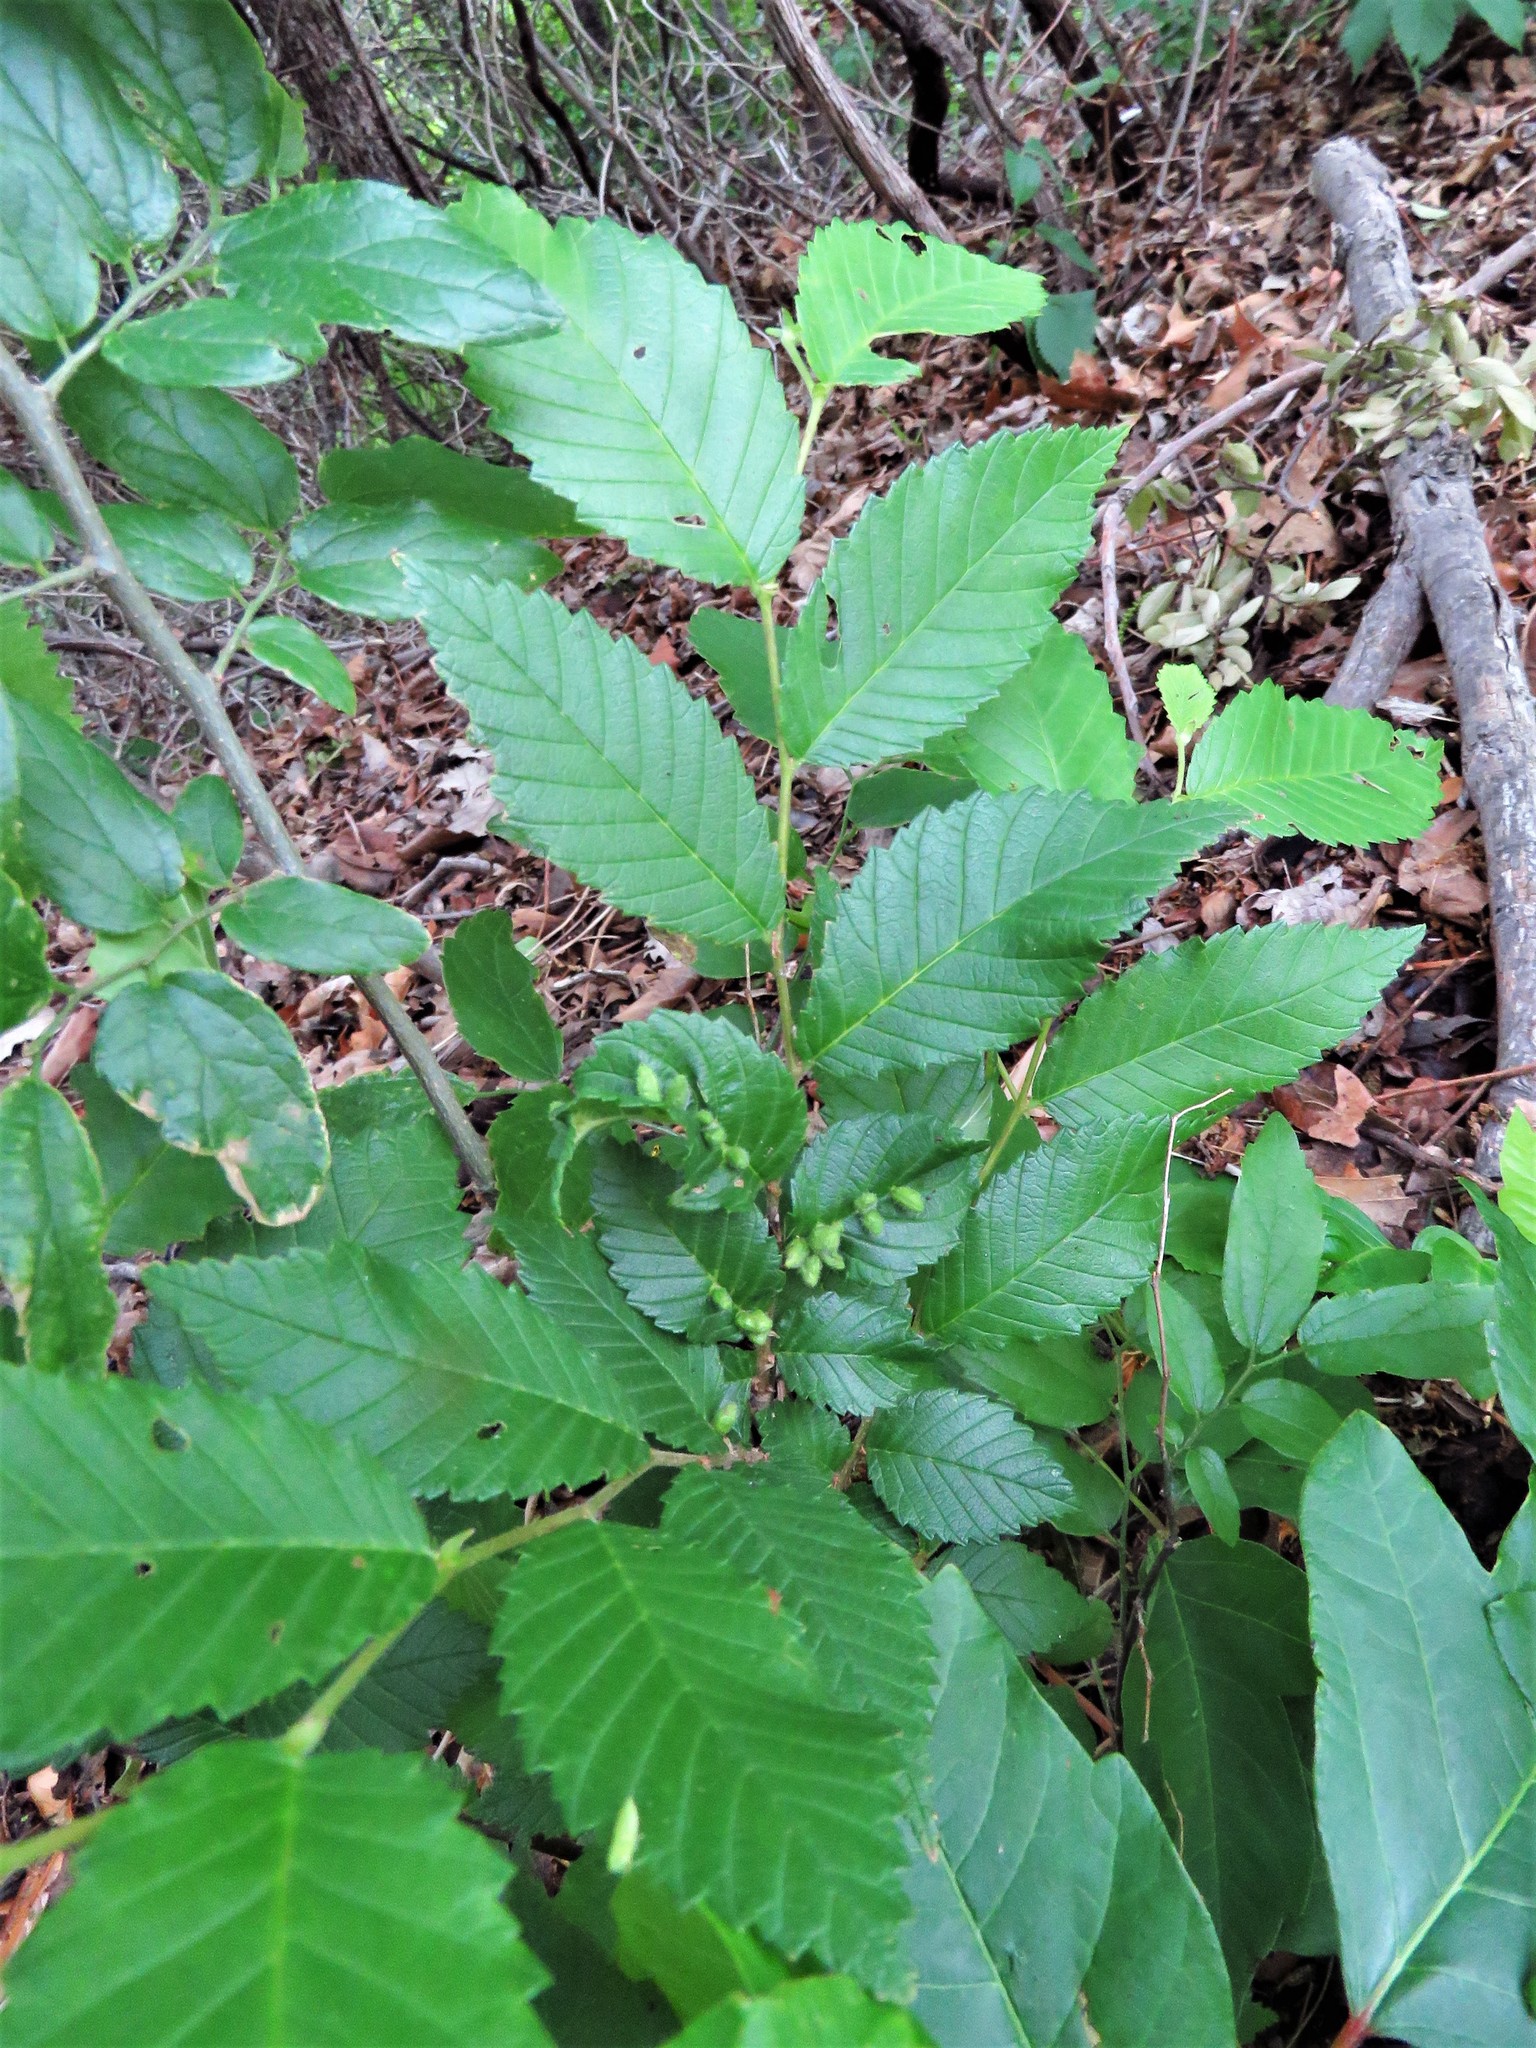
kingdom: Plantae
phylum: Tracheophyta
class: Magnoliopsida
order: Rosales
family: Ulmaceae
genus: Ulmus
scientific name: Ulmus americana
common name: American elm
